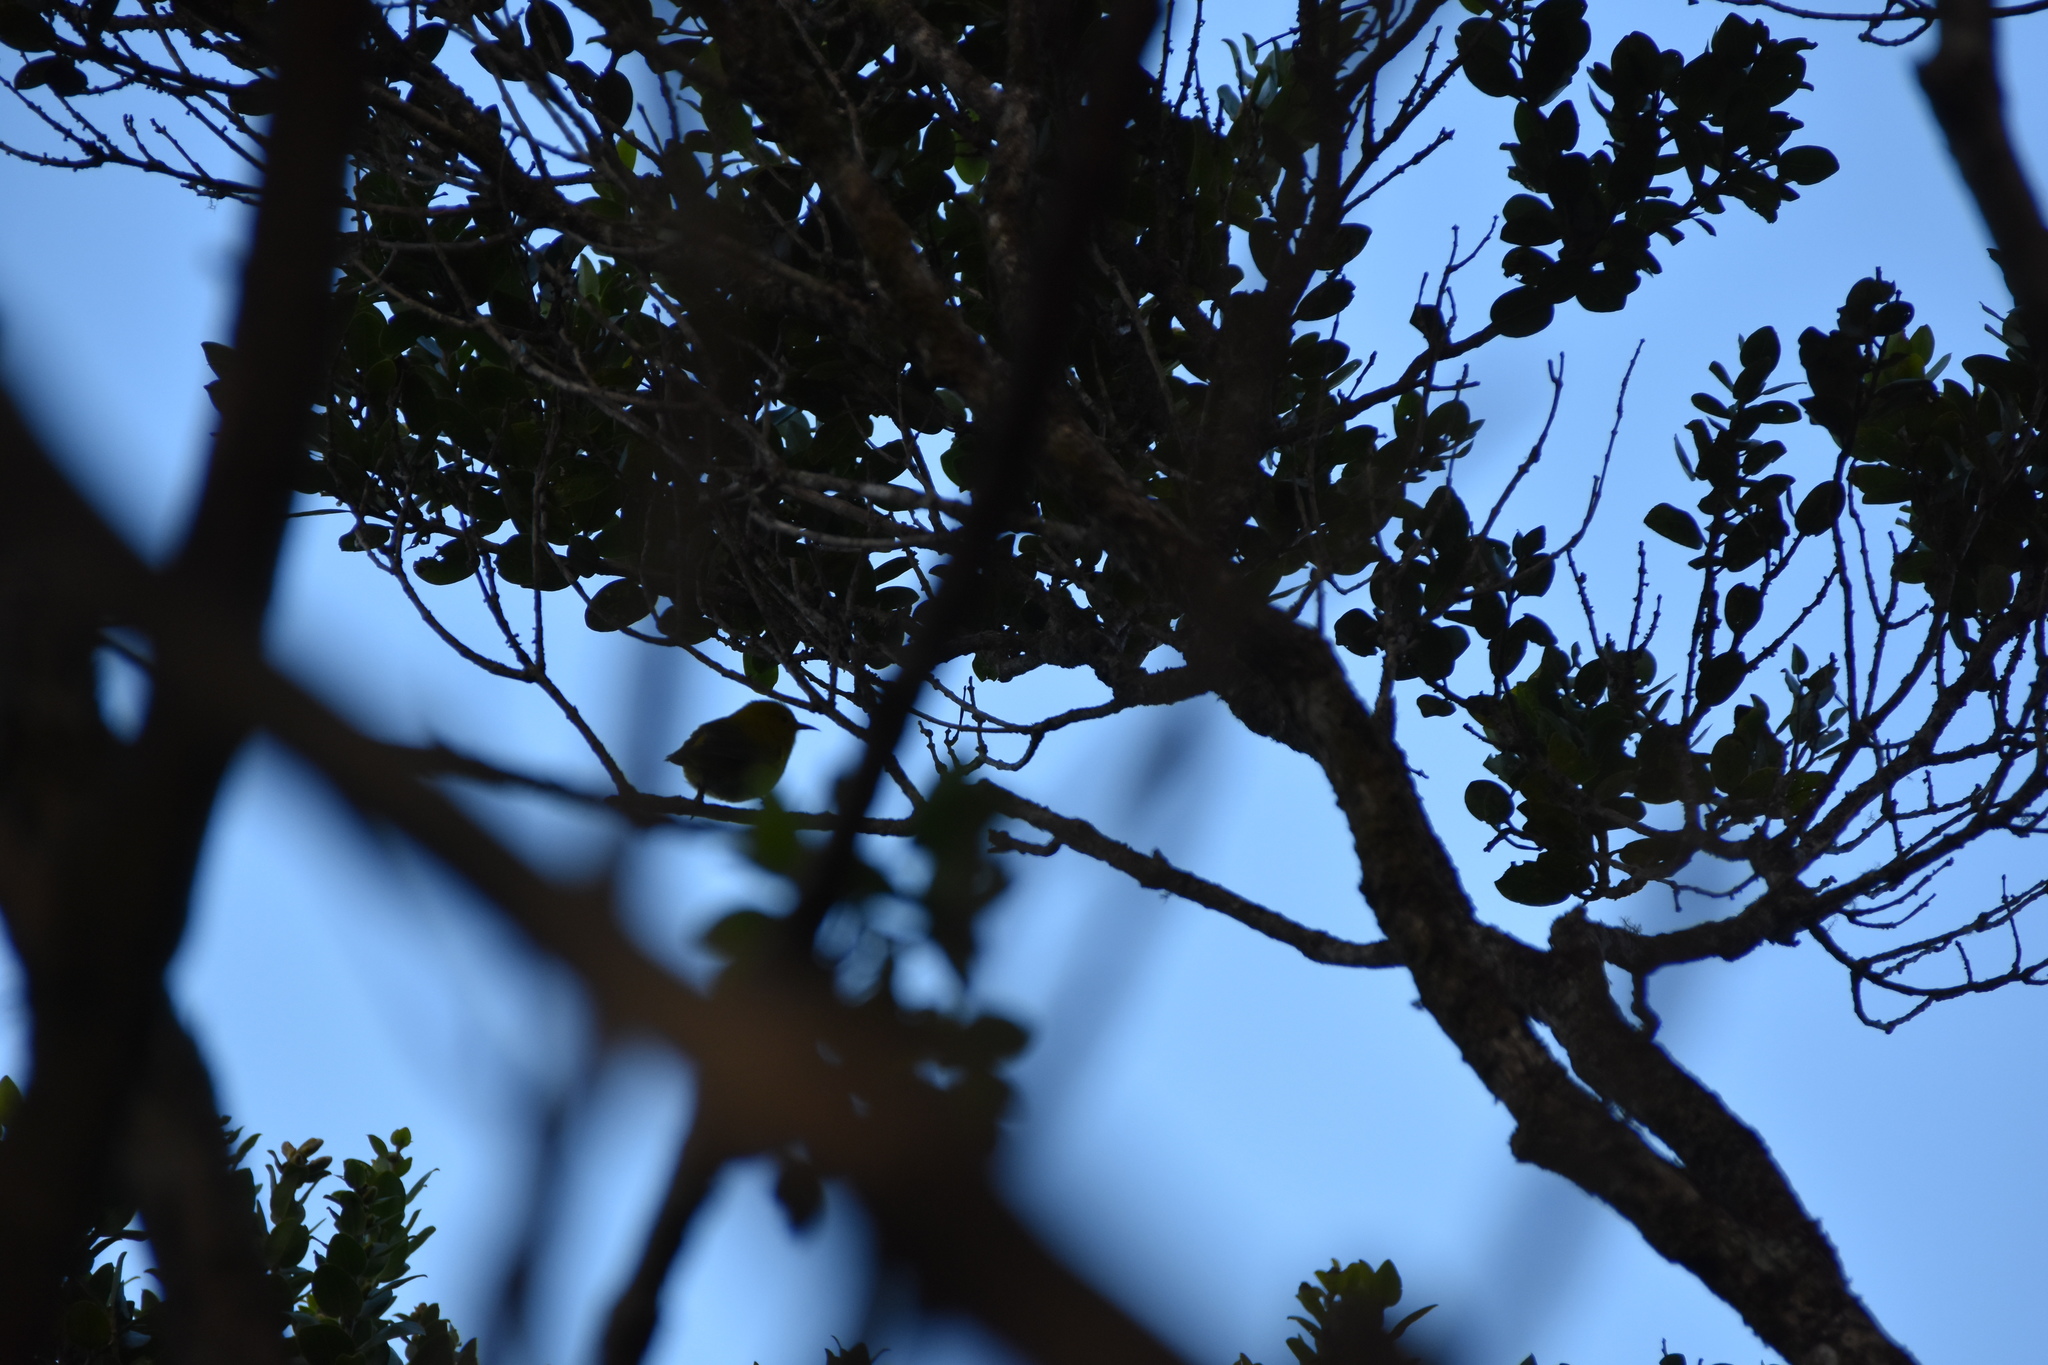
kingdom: Animalia
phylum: Chordata
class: Aves
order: Passeriformes
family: Fringillidae
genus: Magumma
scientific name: Magumma parva
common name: Anianiau
